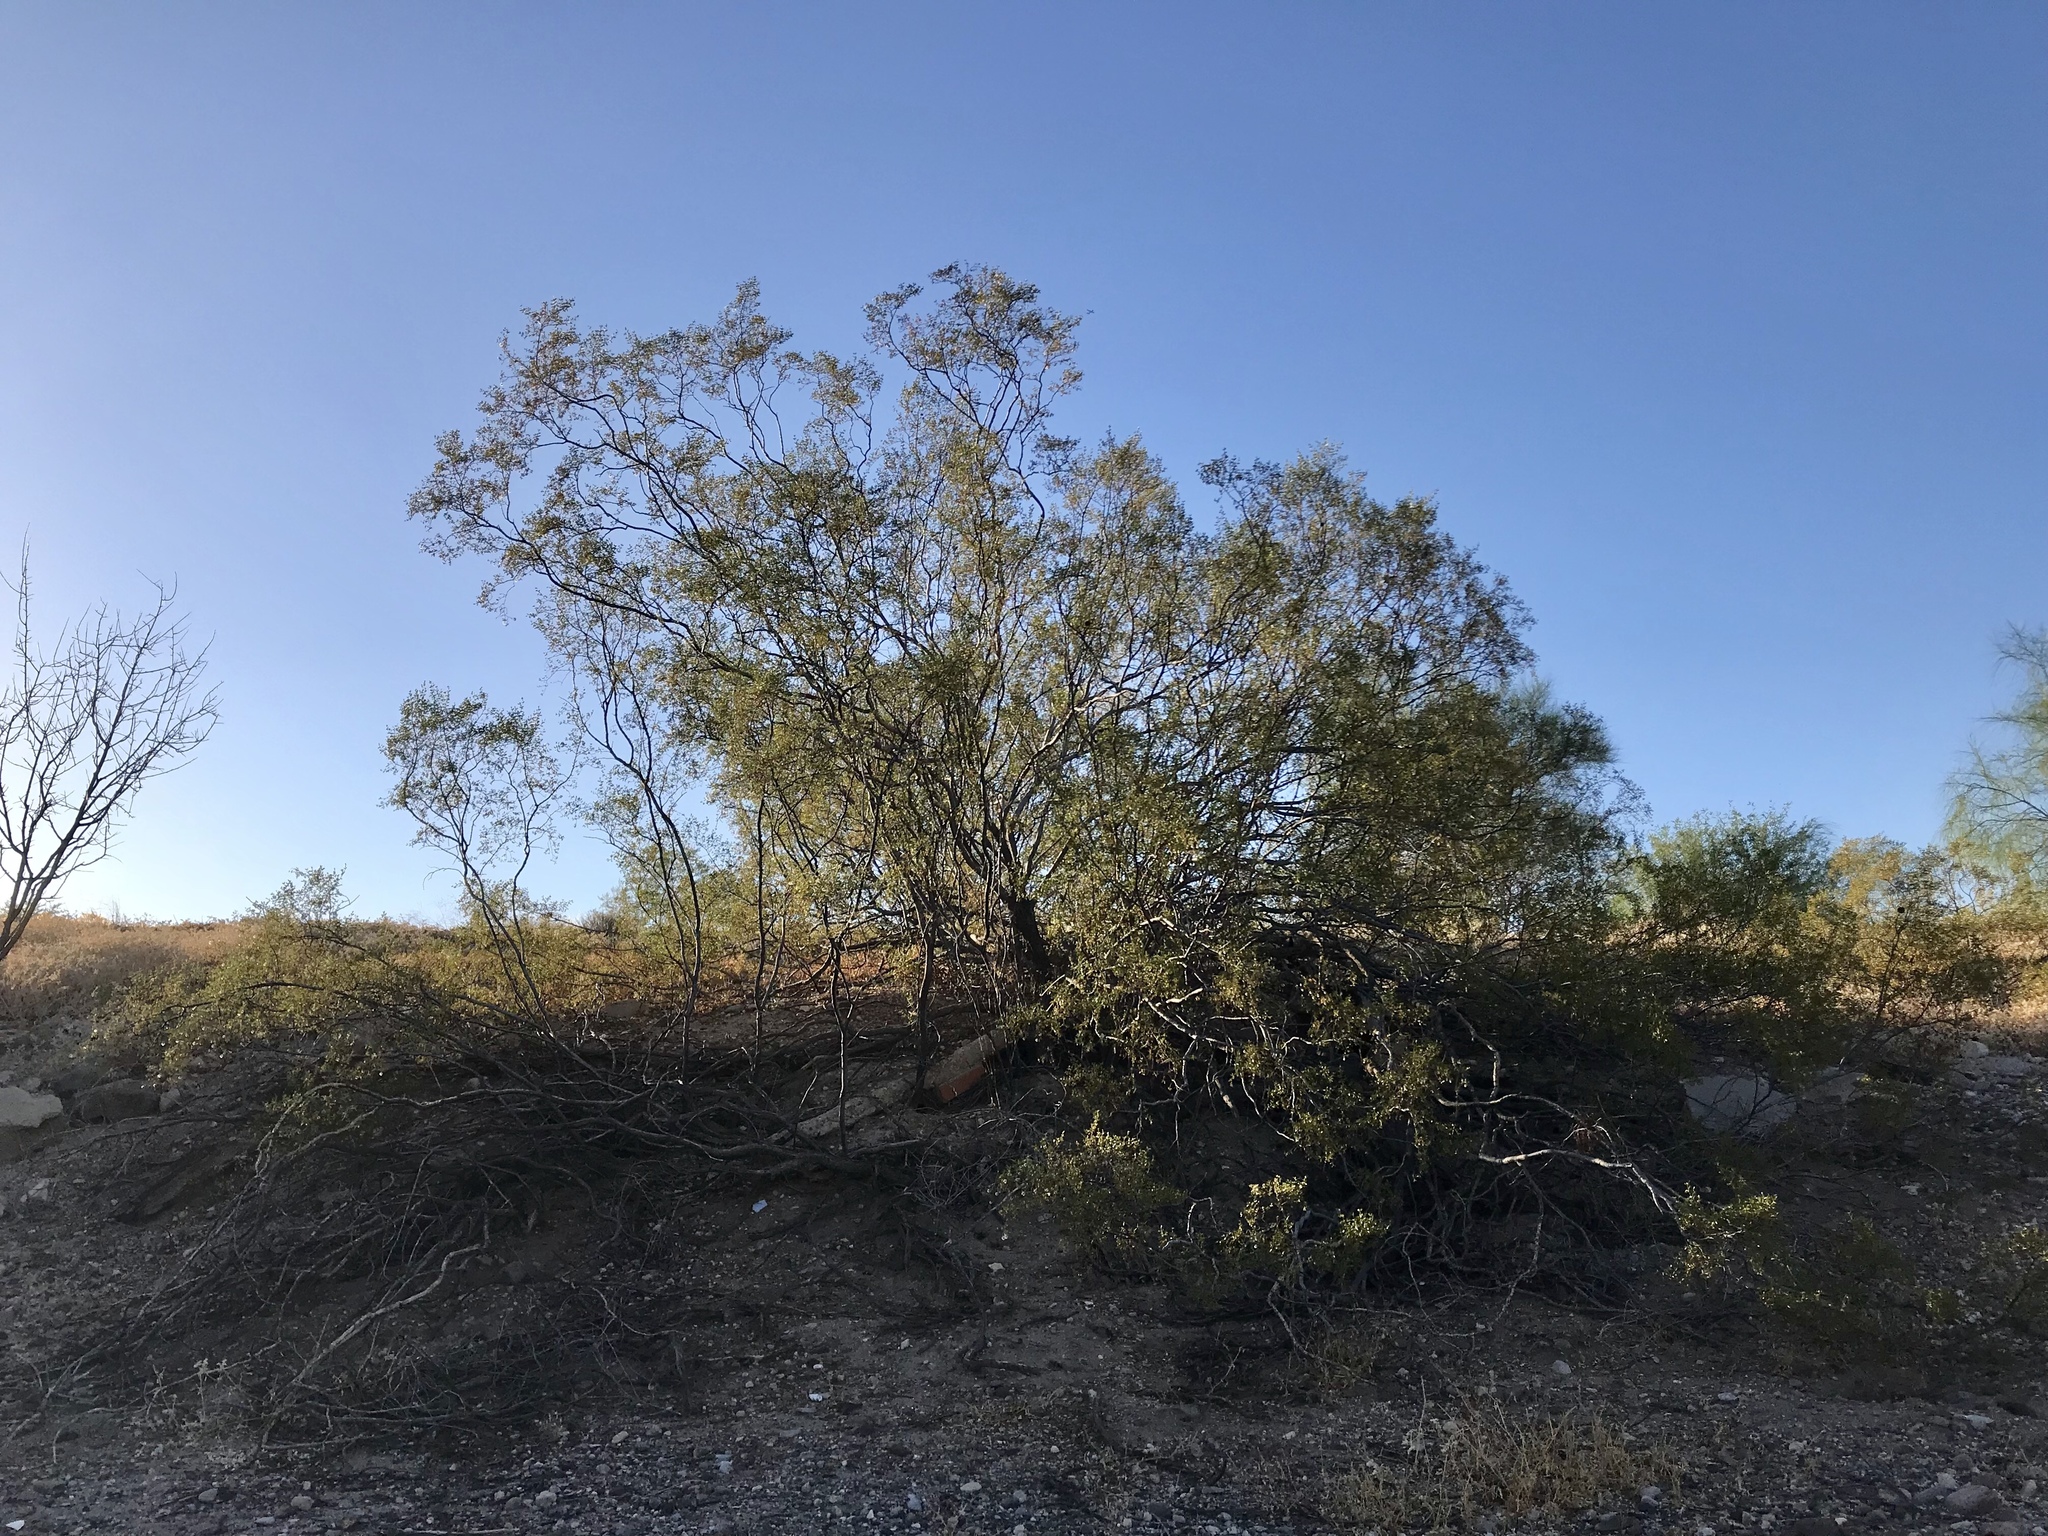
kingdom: Plantae
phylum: Tracheophyta
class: Magnoliopsida
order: Zygophyllales
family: Zygophyllaceae
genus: Larrea
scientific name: Larrea tridentata
